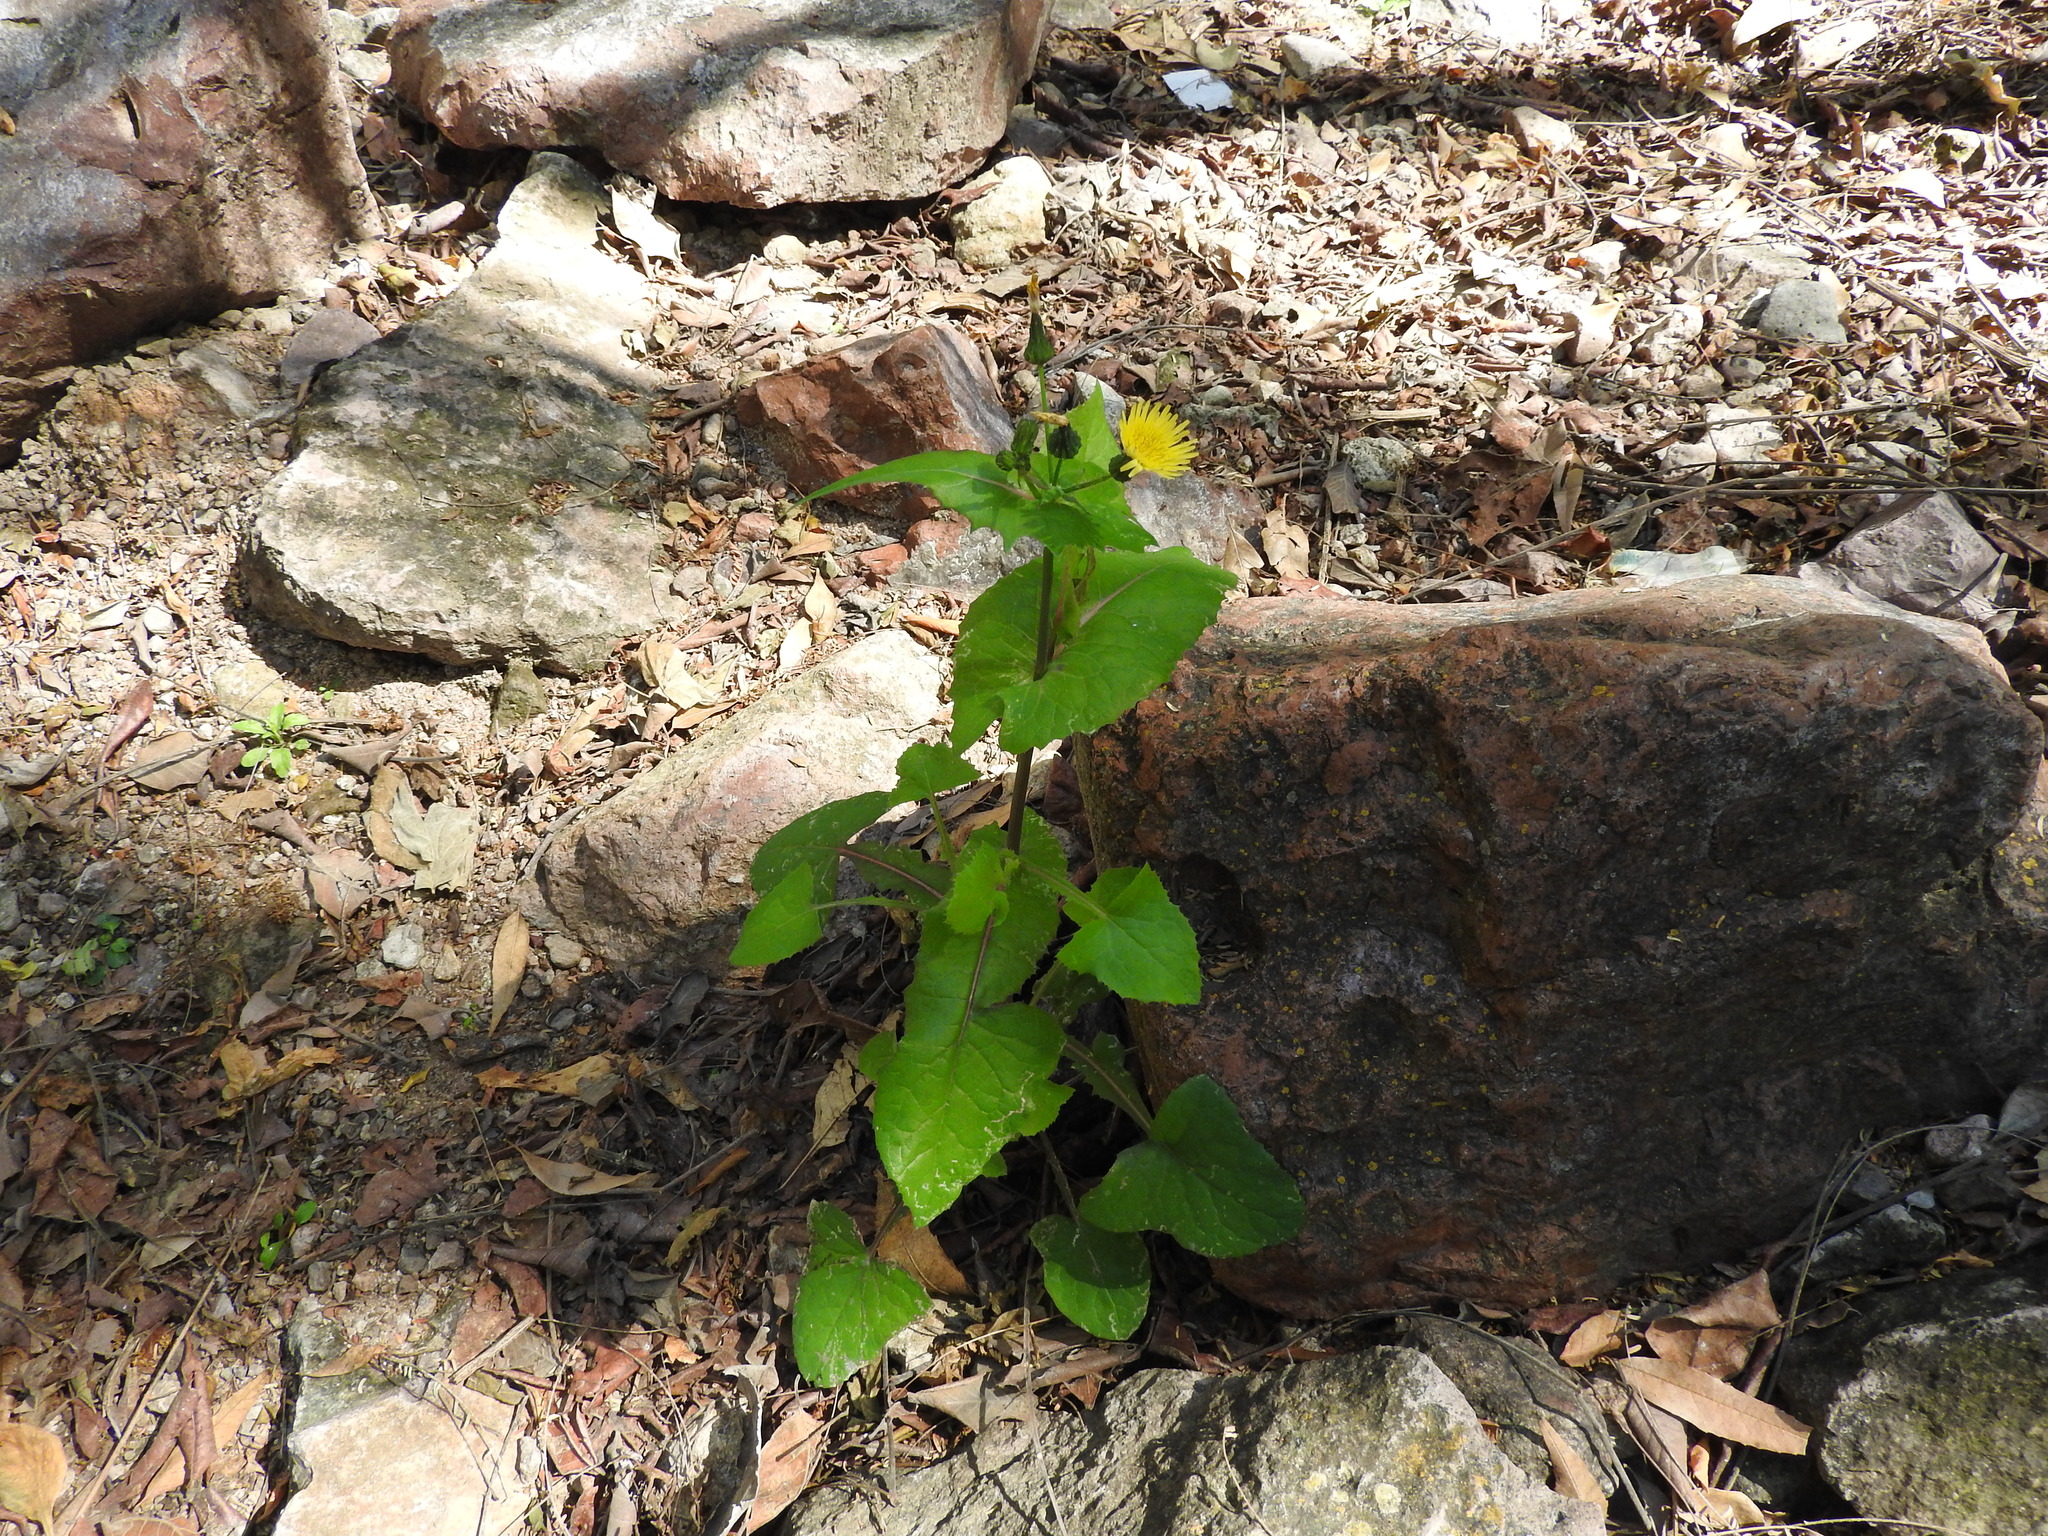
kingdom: Plantae
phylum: Tracheophyta
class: Magnoliopsida
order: Asterales
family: Asteraceae
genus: Sonchus
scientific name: Sonchus oleraceus
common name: Common sowthistle
